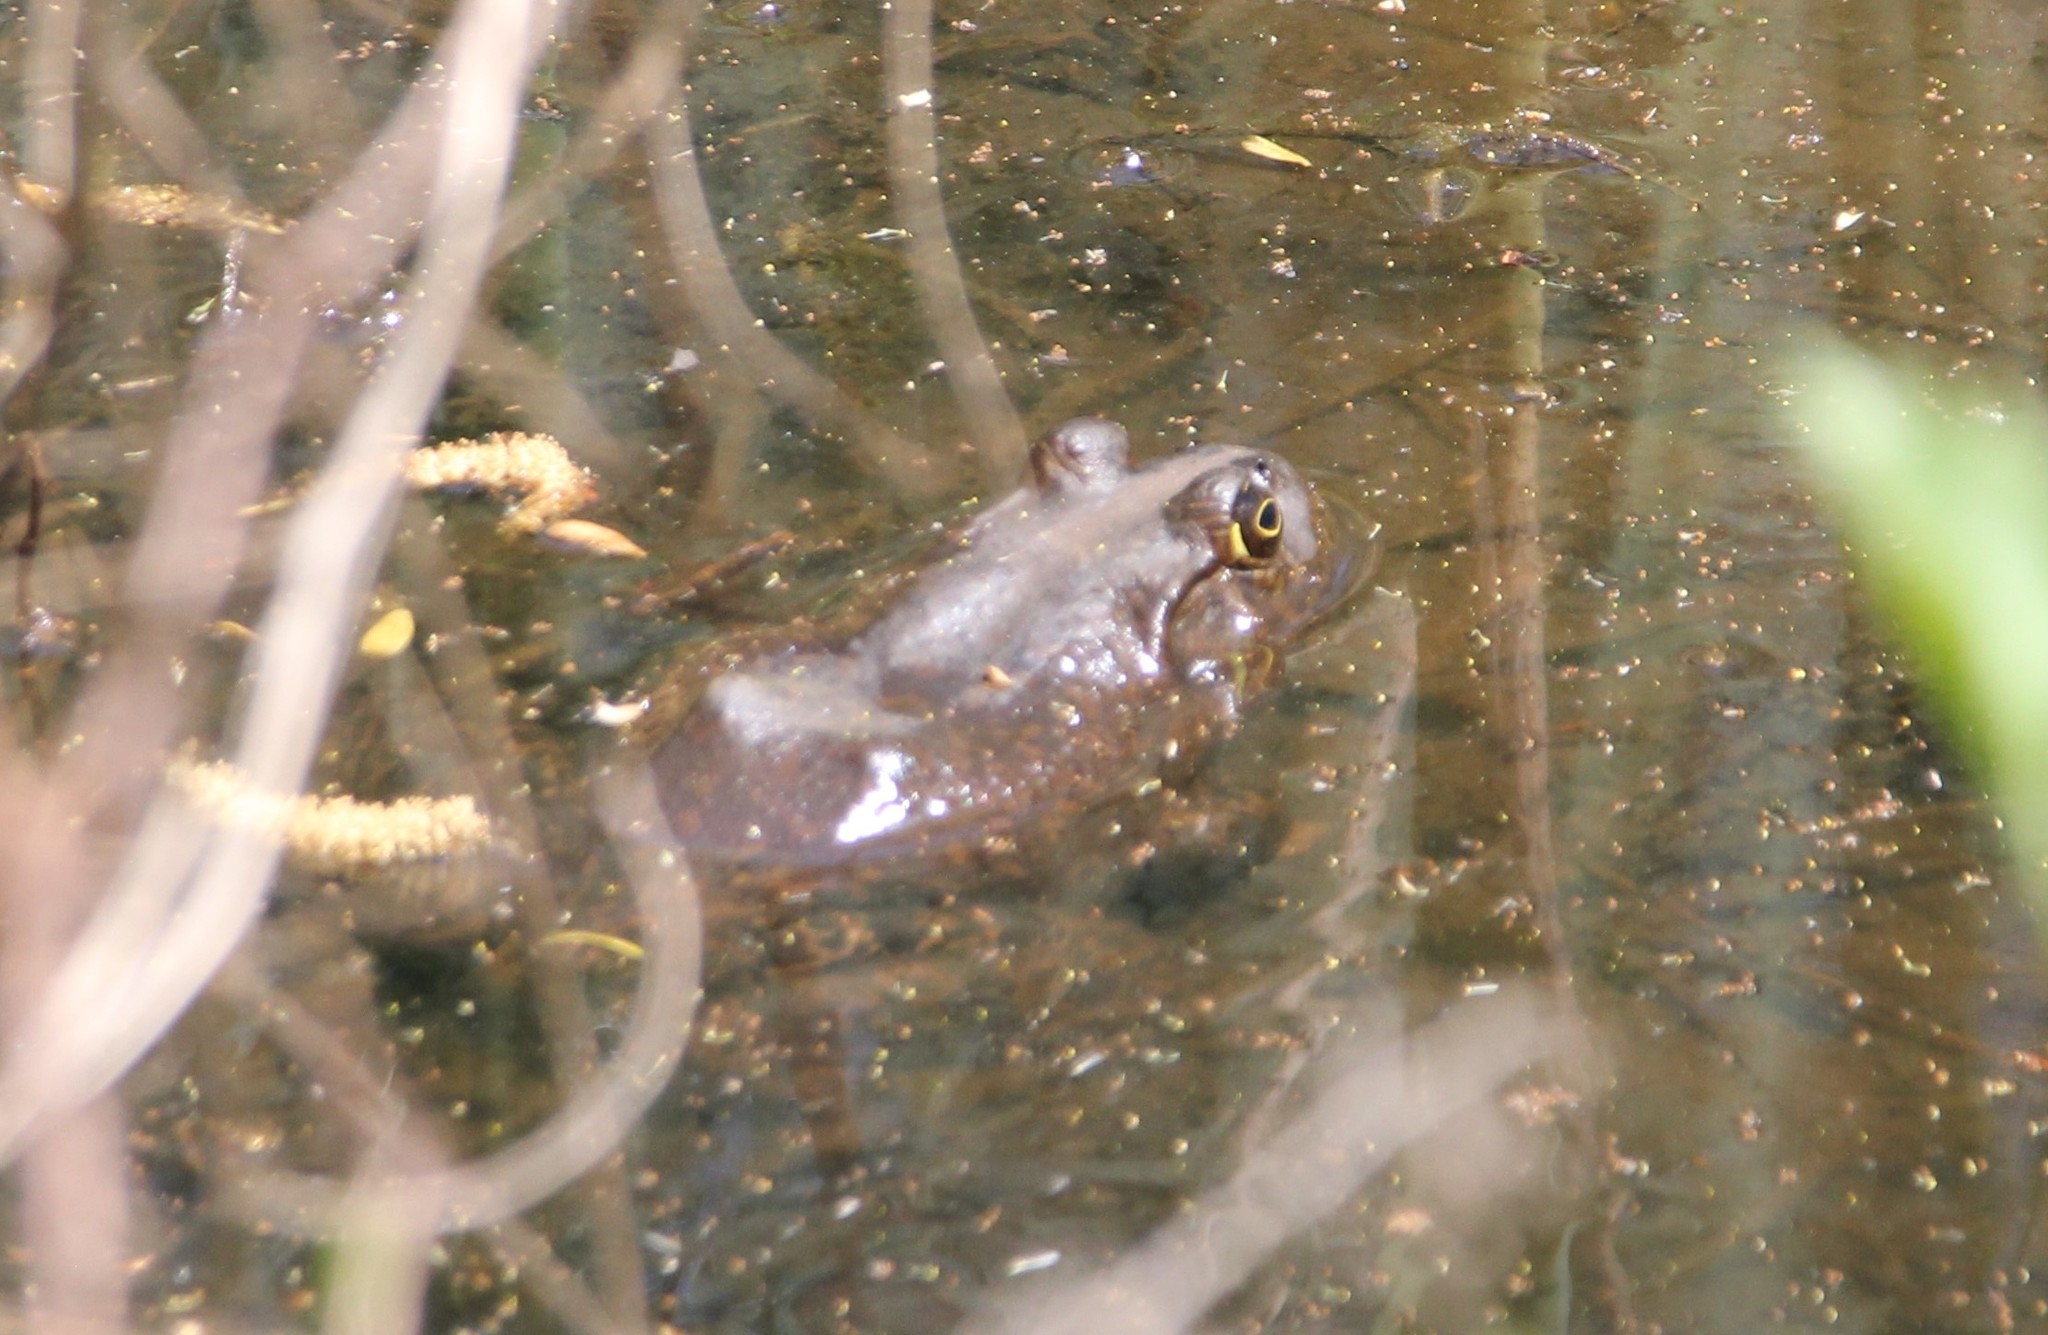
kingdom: Animalia
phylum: Chordata
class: Amphibia
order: Anura
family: Ranidae
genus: Lithobates
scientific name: Lithobates catesbeianus
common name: American bullfrog
